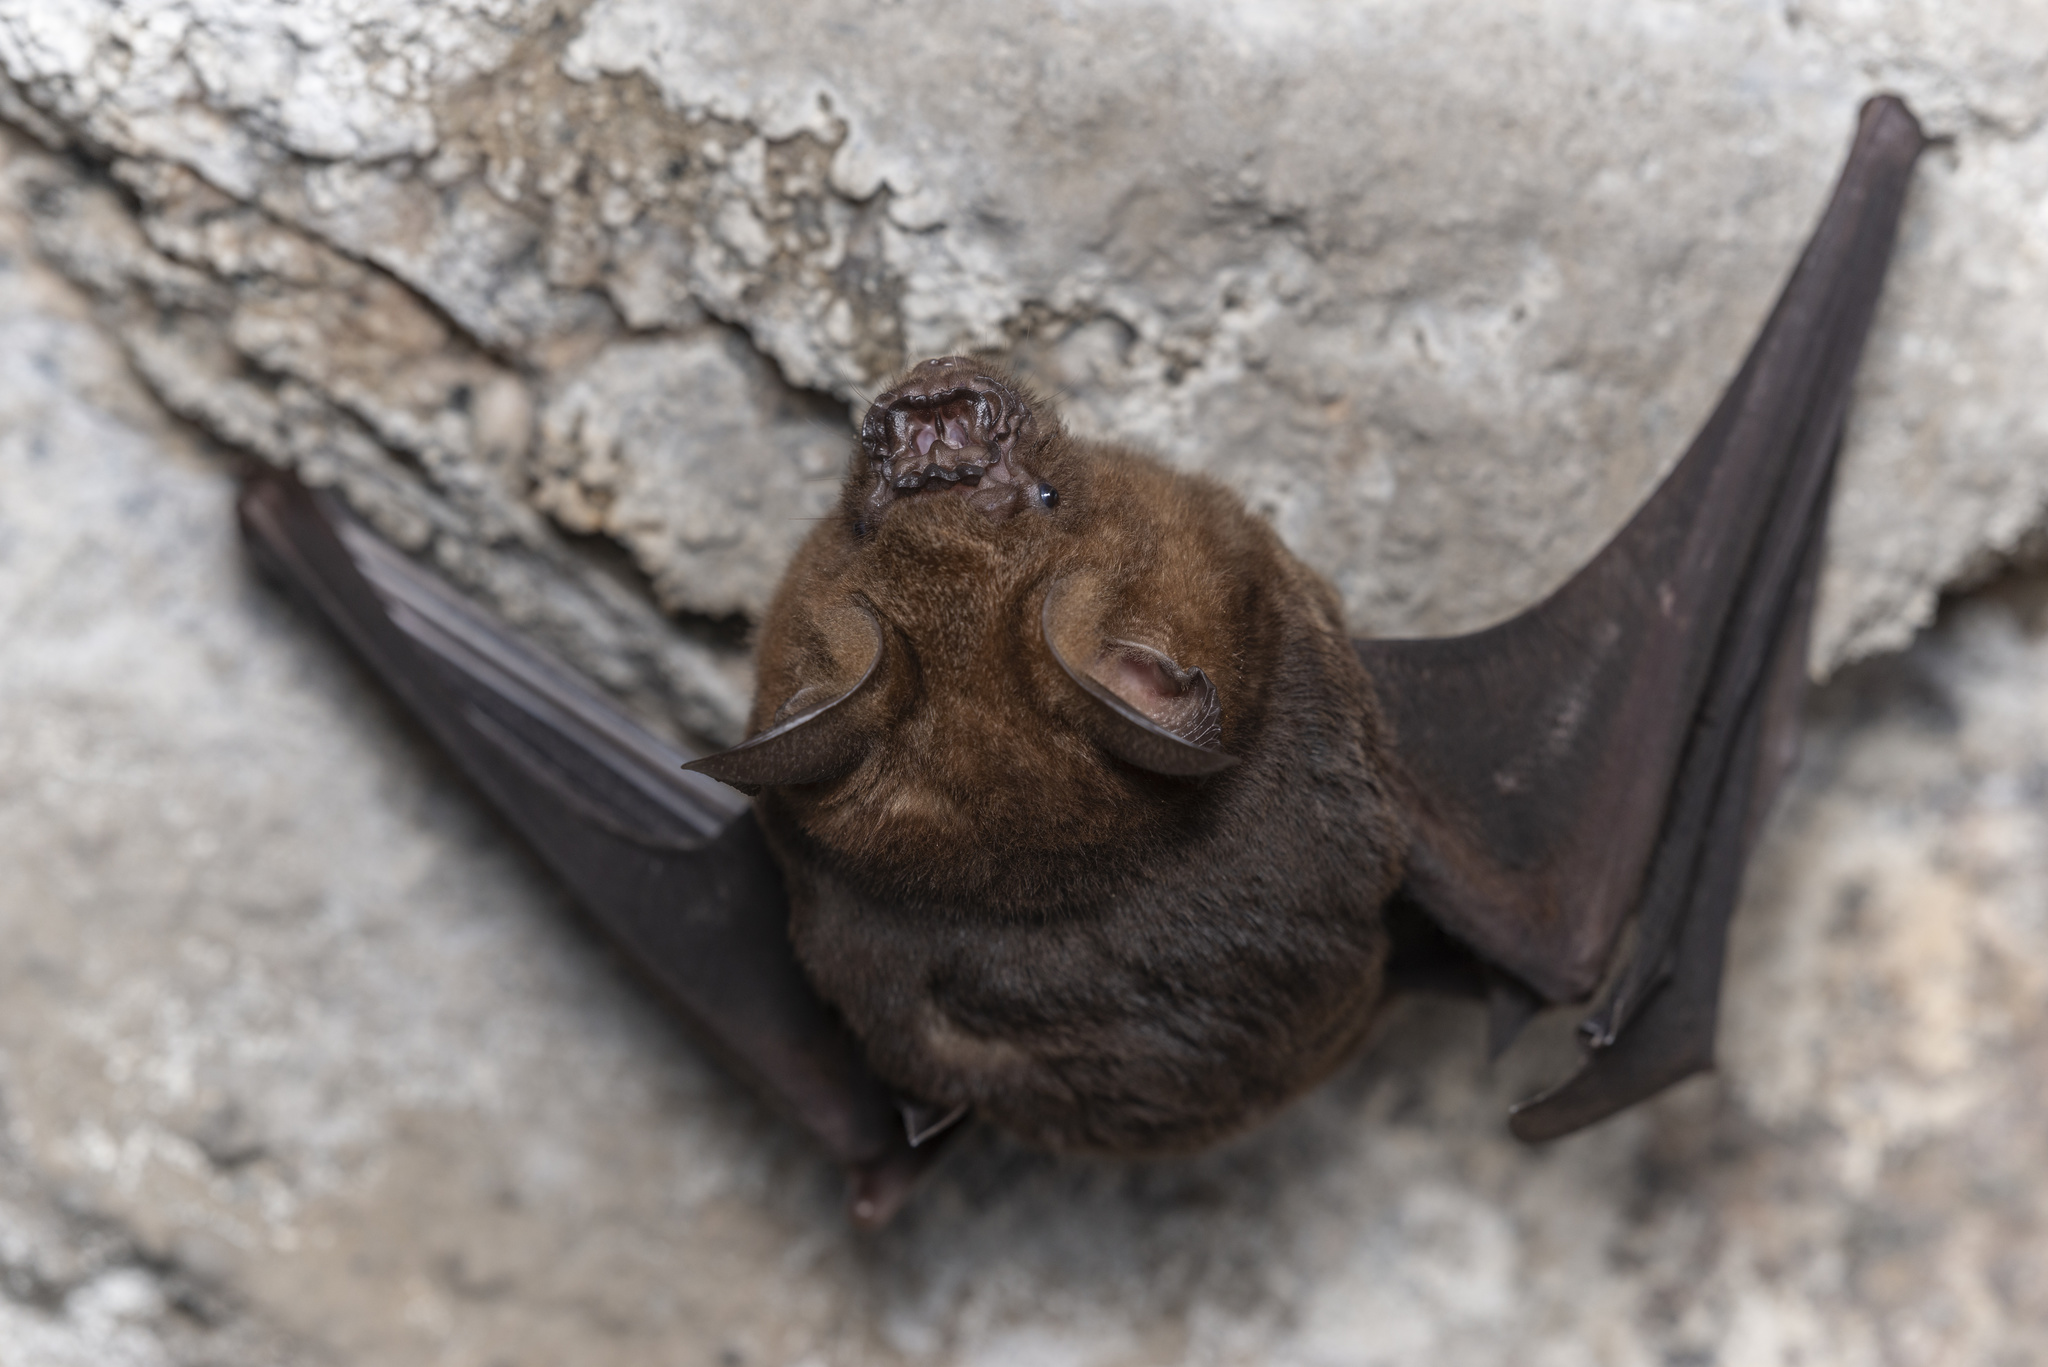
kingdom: Animalia
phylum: Chordata
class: Mammalia
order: Chiroptera
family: Hipposideridae
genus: Hipposideros
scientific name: Hipposideros armiger
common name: Great leaf-nosed bat
